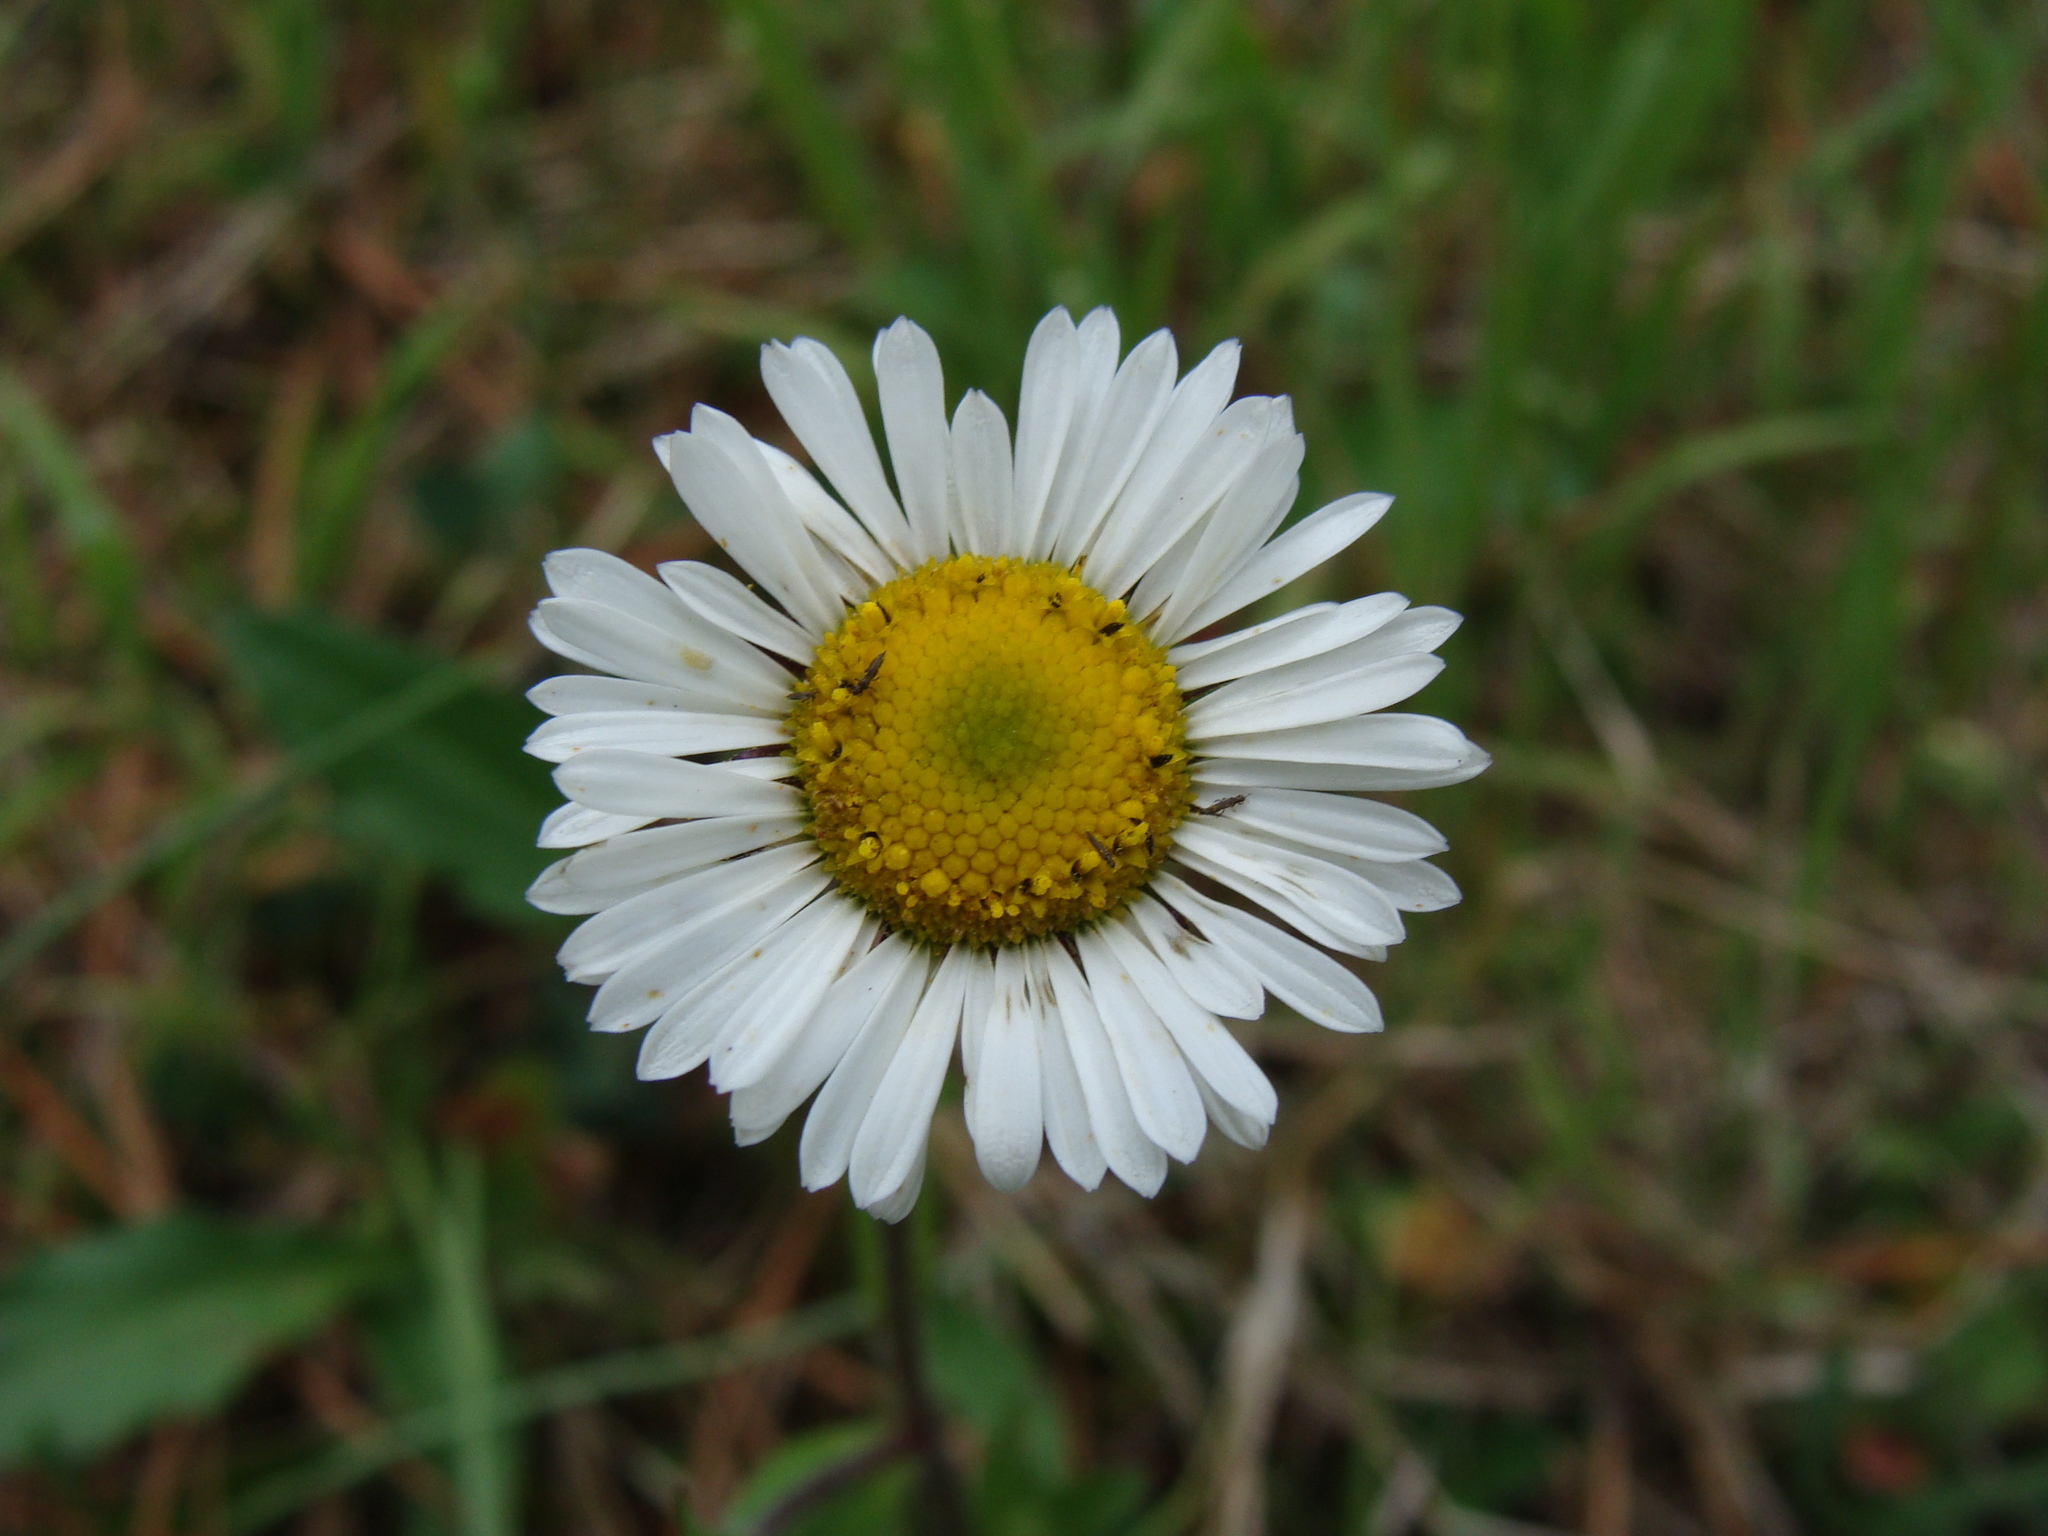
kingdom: Plantae
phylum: Tracheophyta
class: Magnoliopsida
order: Asterales
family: Asteraceae
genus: Astranthium
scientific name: Astranthium xanthocomoides
